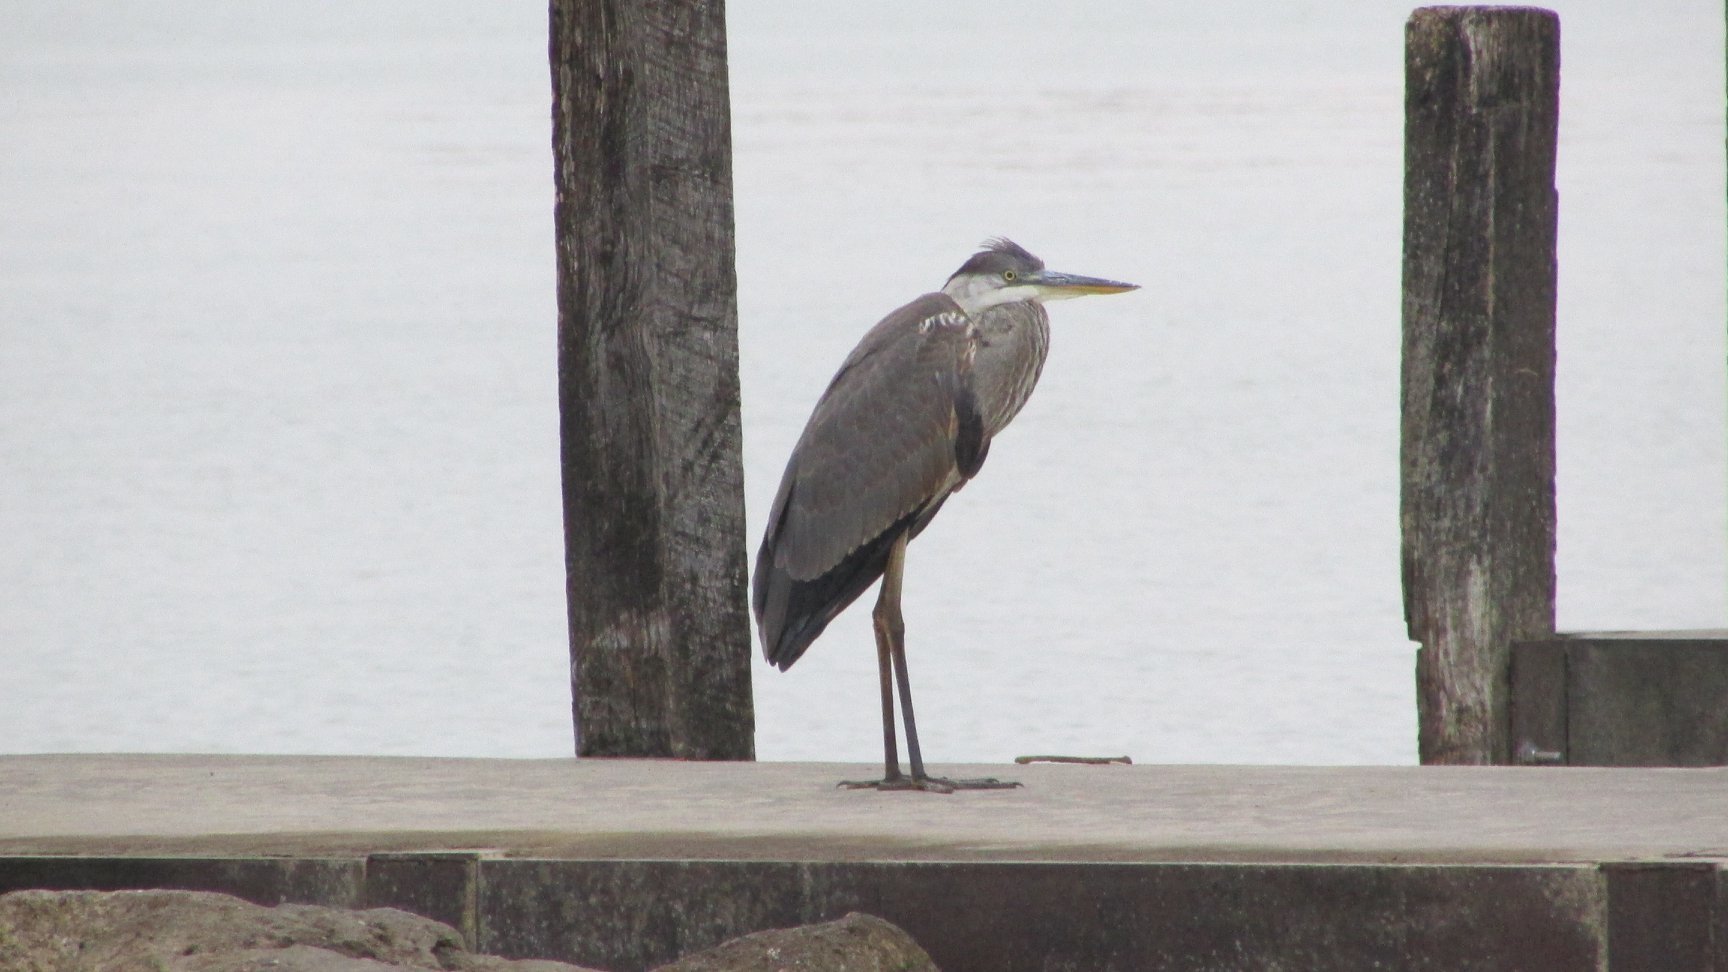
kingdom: Animalia
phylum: Chordata
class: Aves
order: Pelecaniformes
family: Ardeidae
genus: Ardea
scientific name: Ardea herodias
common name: Great blue heron
